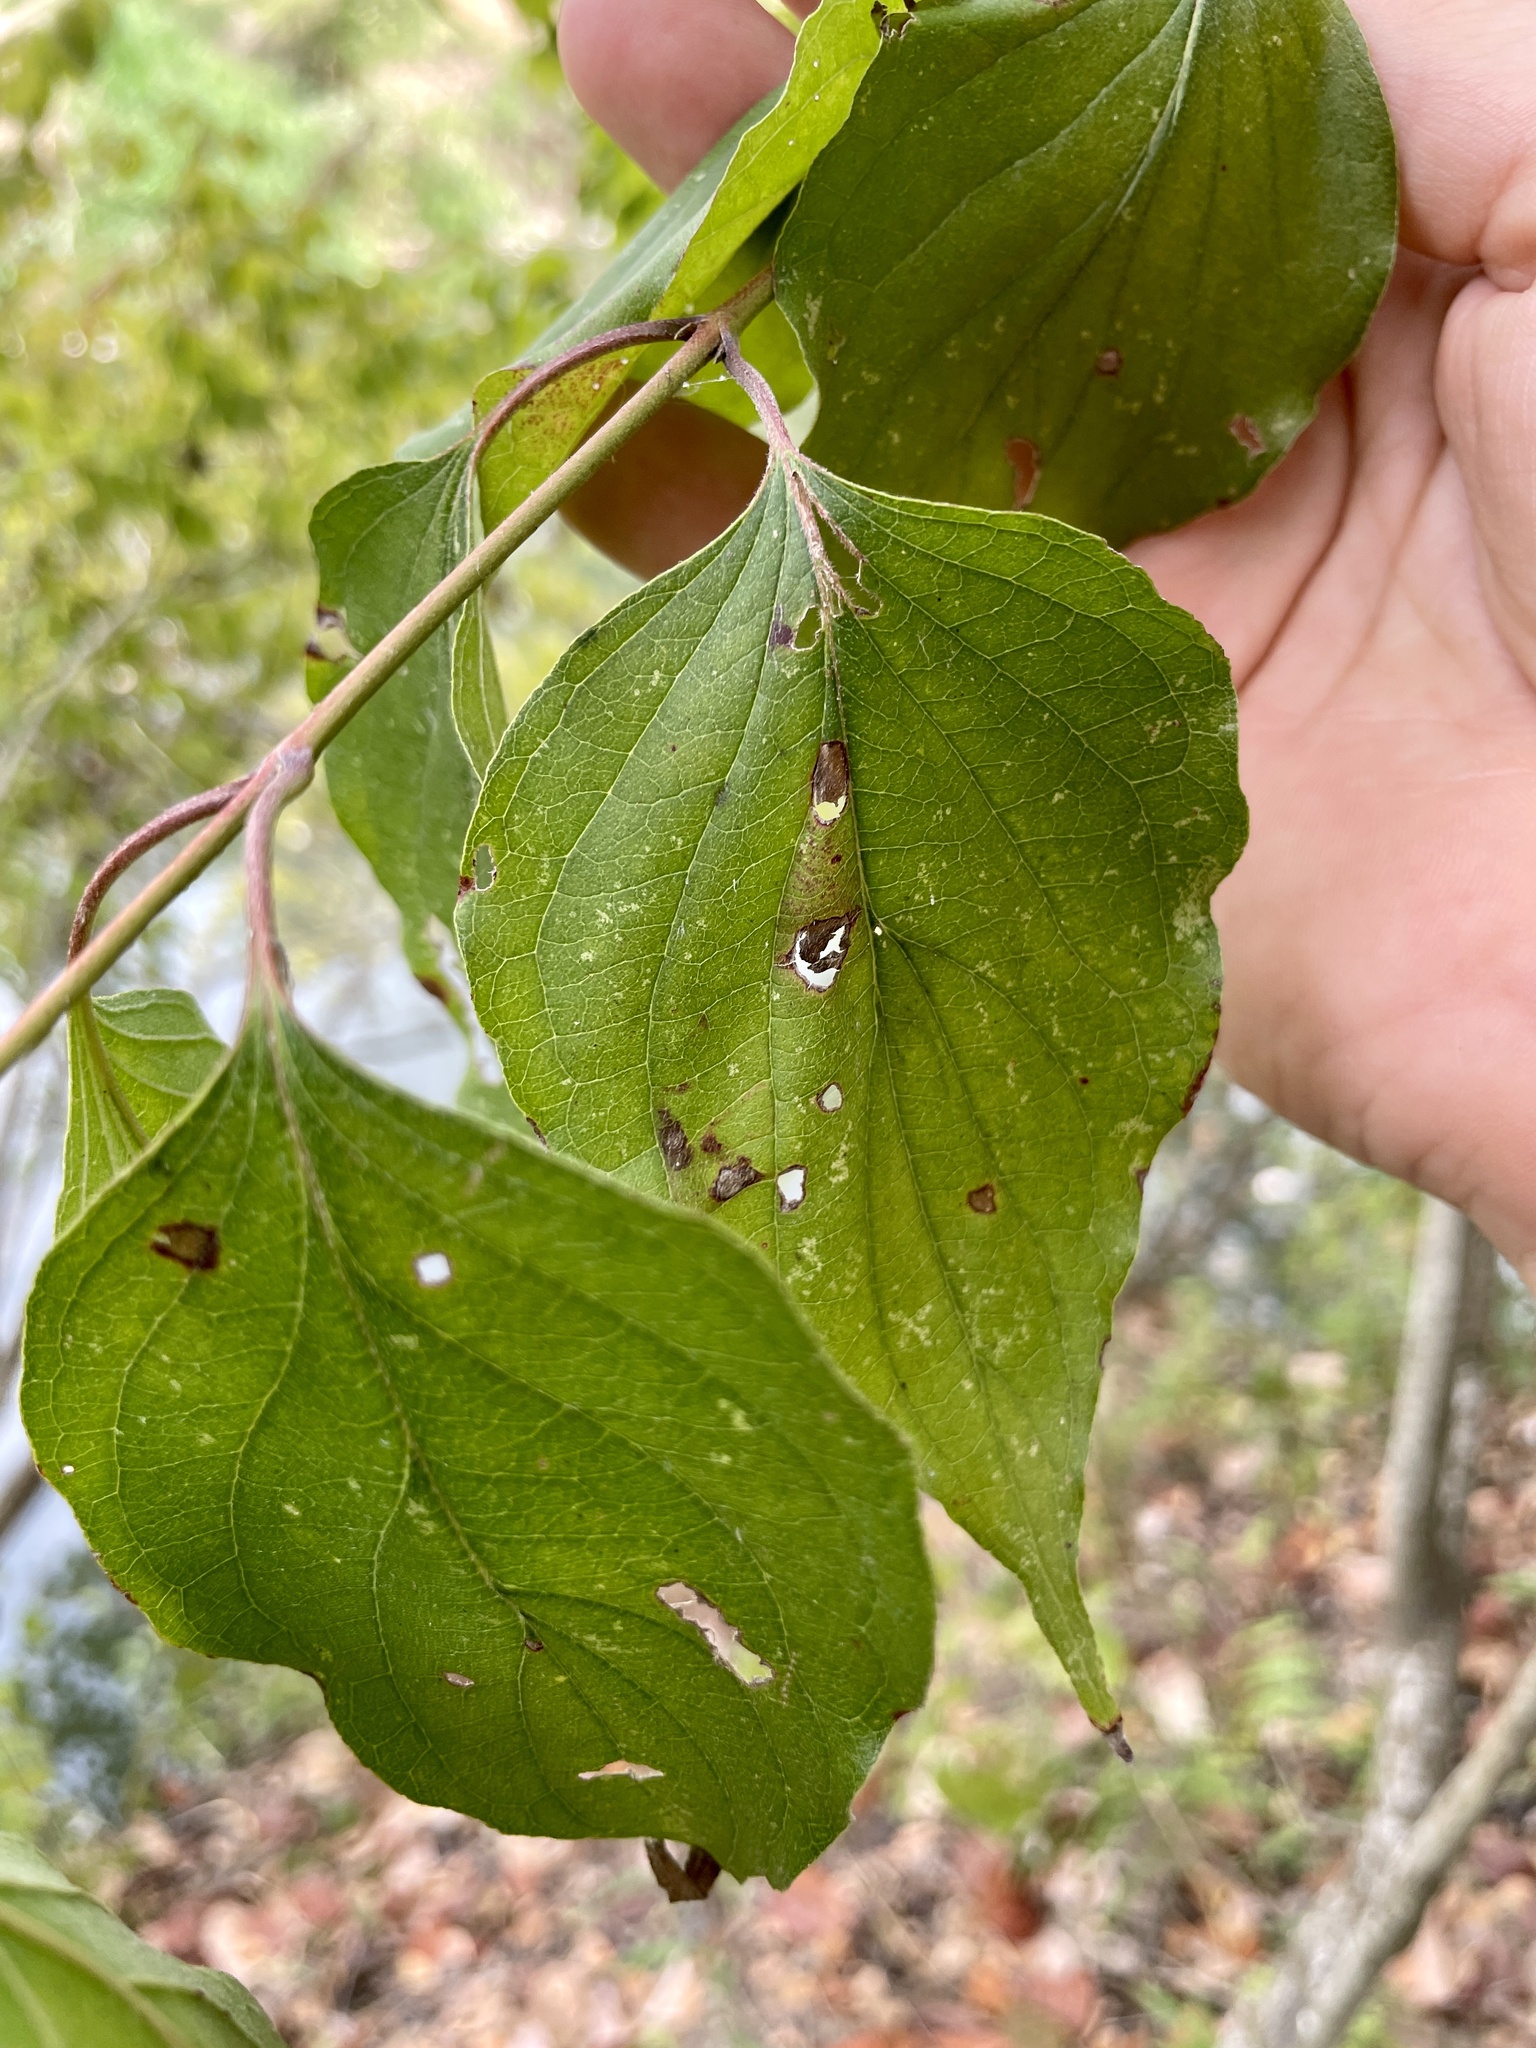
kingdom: Plantae
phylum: Tracheophyta
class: Magnoliopsida
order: Cornales
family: Cornaceae
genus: Cornus
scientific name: Cornus drummondii
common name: Rough-leaf dogwood
